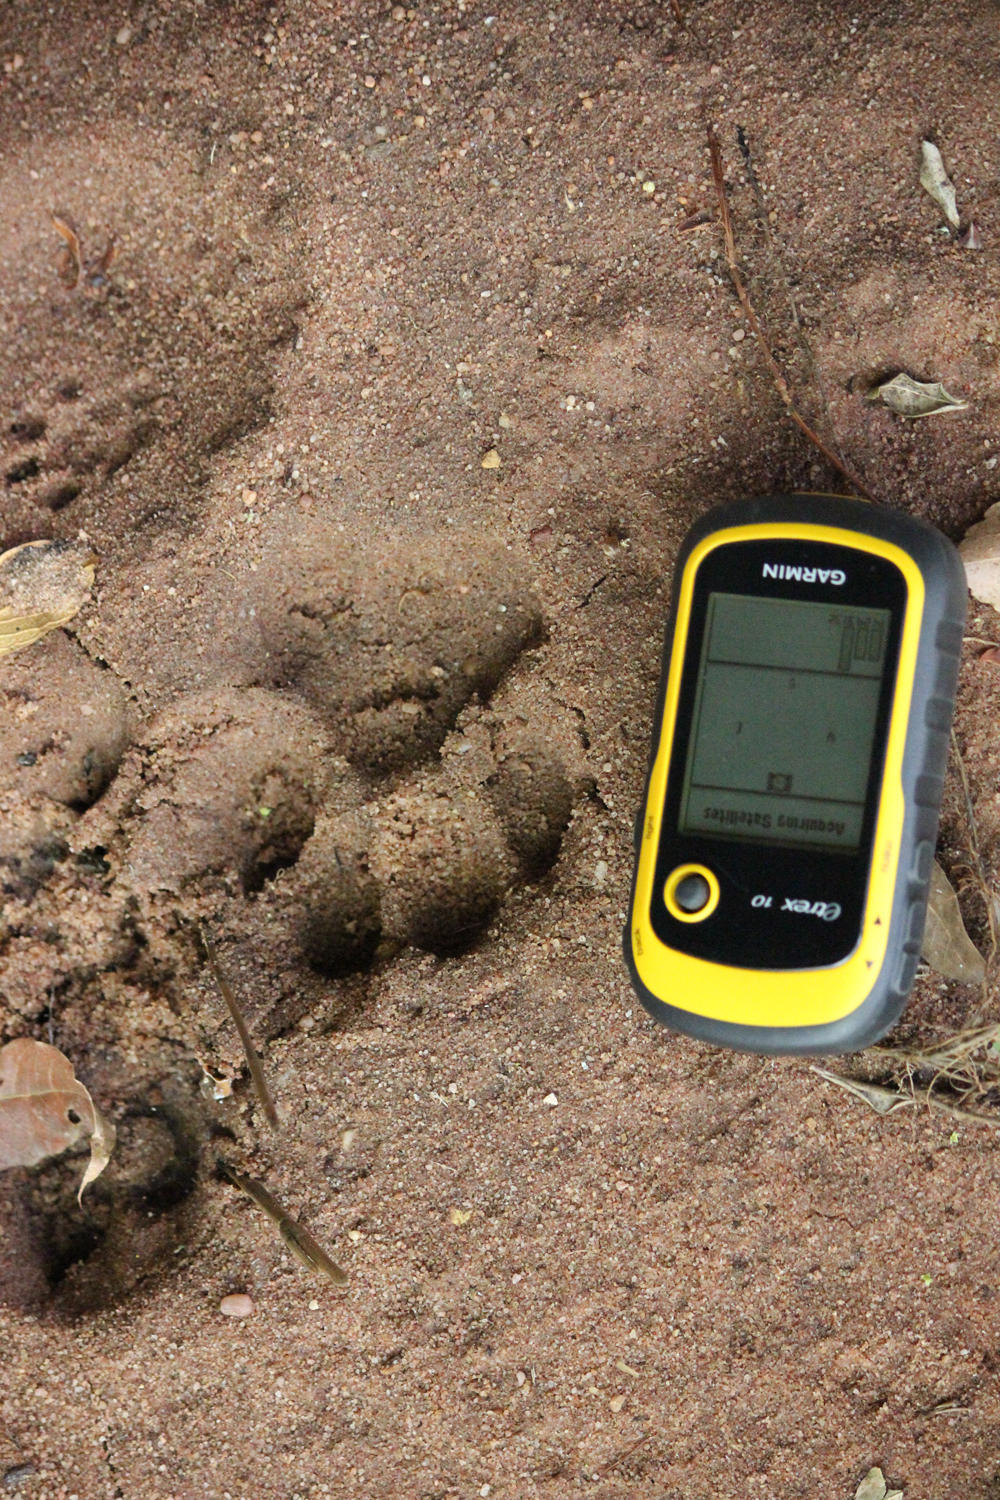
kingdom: Animalia
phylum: Chordata
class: Mammalia
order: Carnivora
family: Felidae
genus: Panthera
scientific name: Panthera pardus
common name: Leopard
